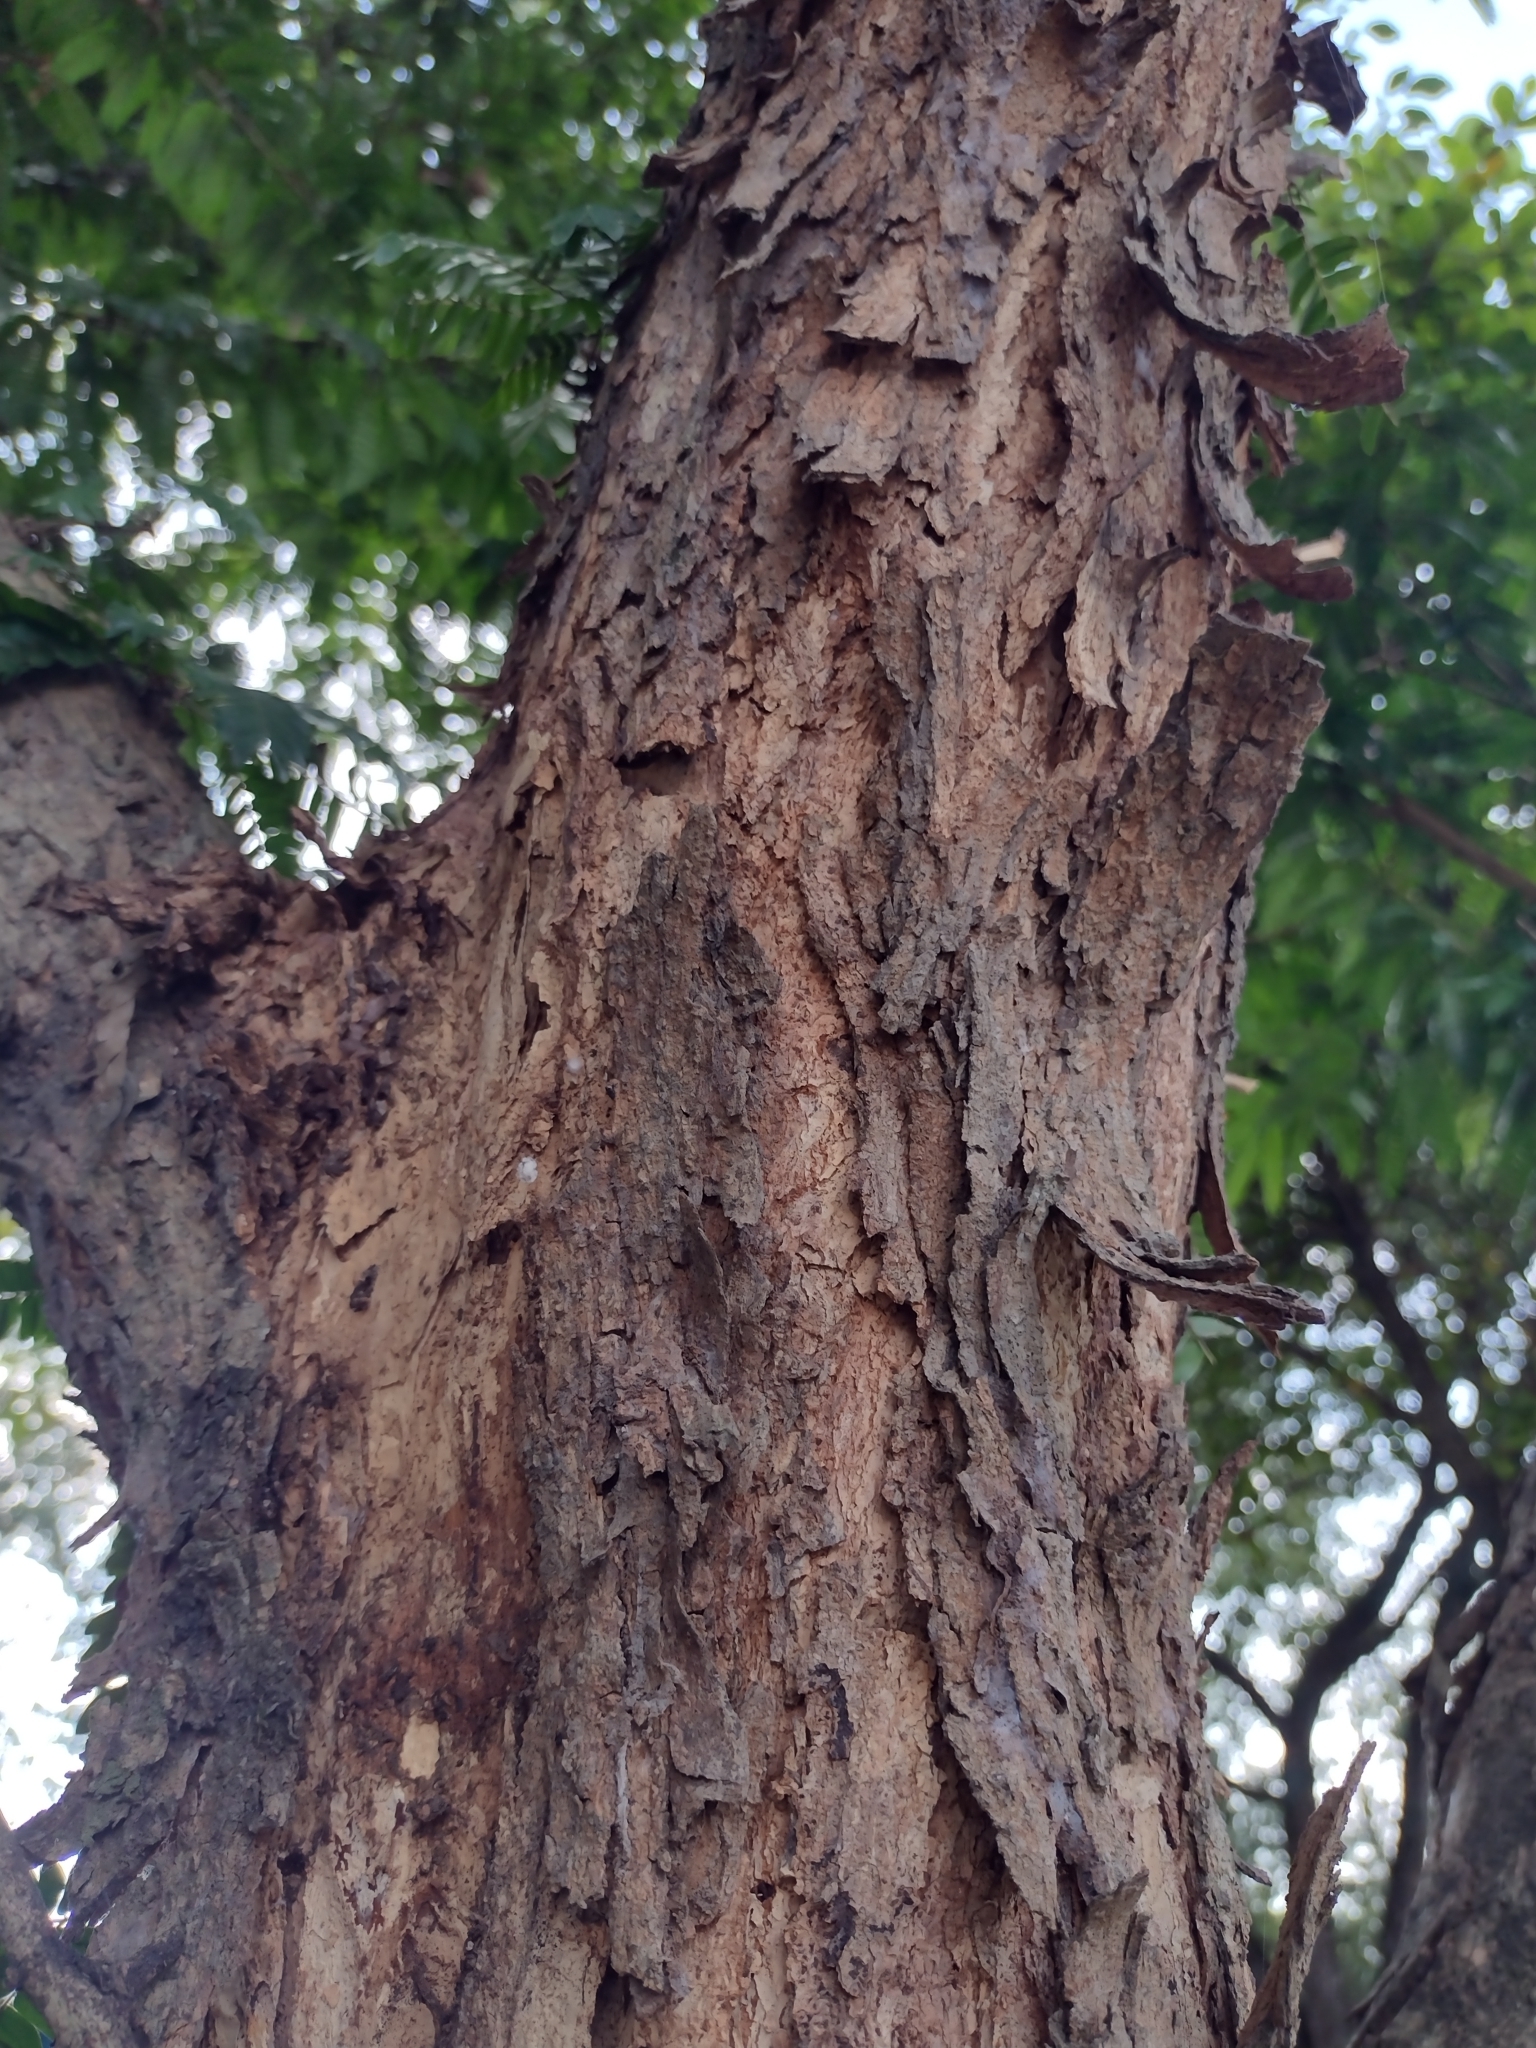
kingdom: Plantae
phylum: Tracheophyta
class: Magnoliopsida
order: Fabales
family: Fabaceae
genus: Calliandra
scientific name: Calliandra magdalenae
